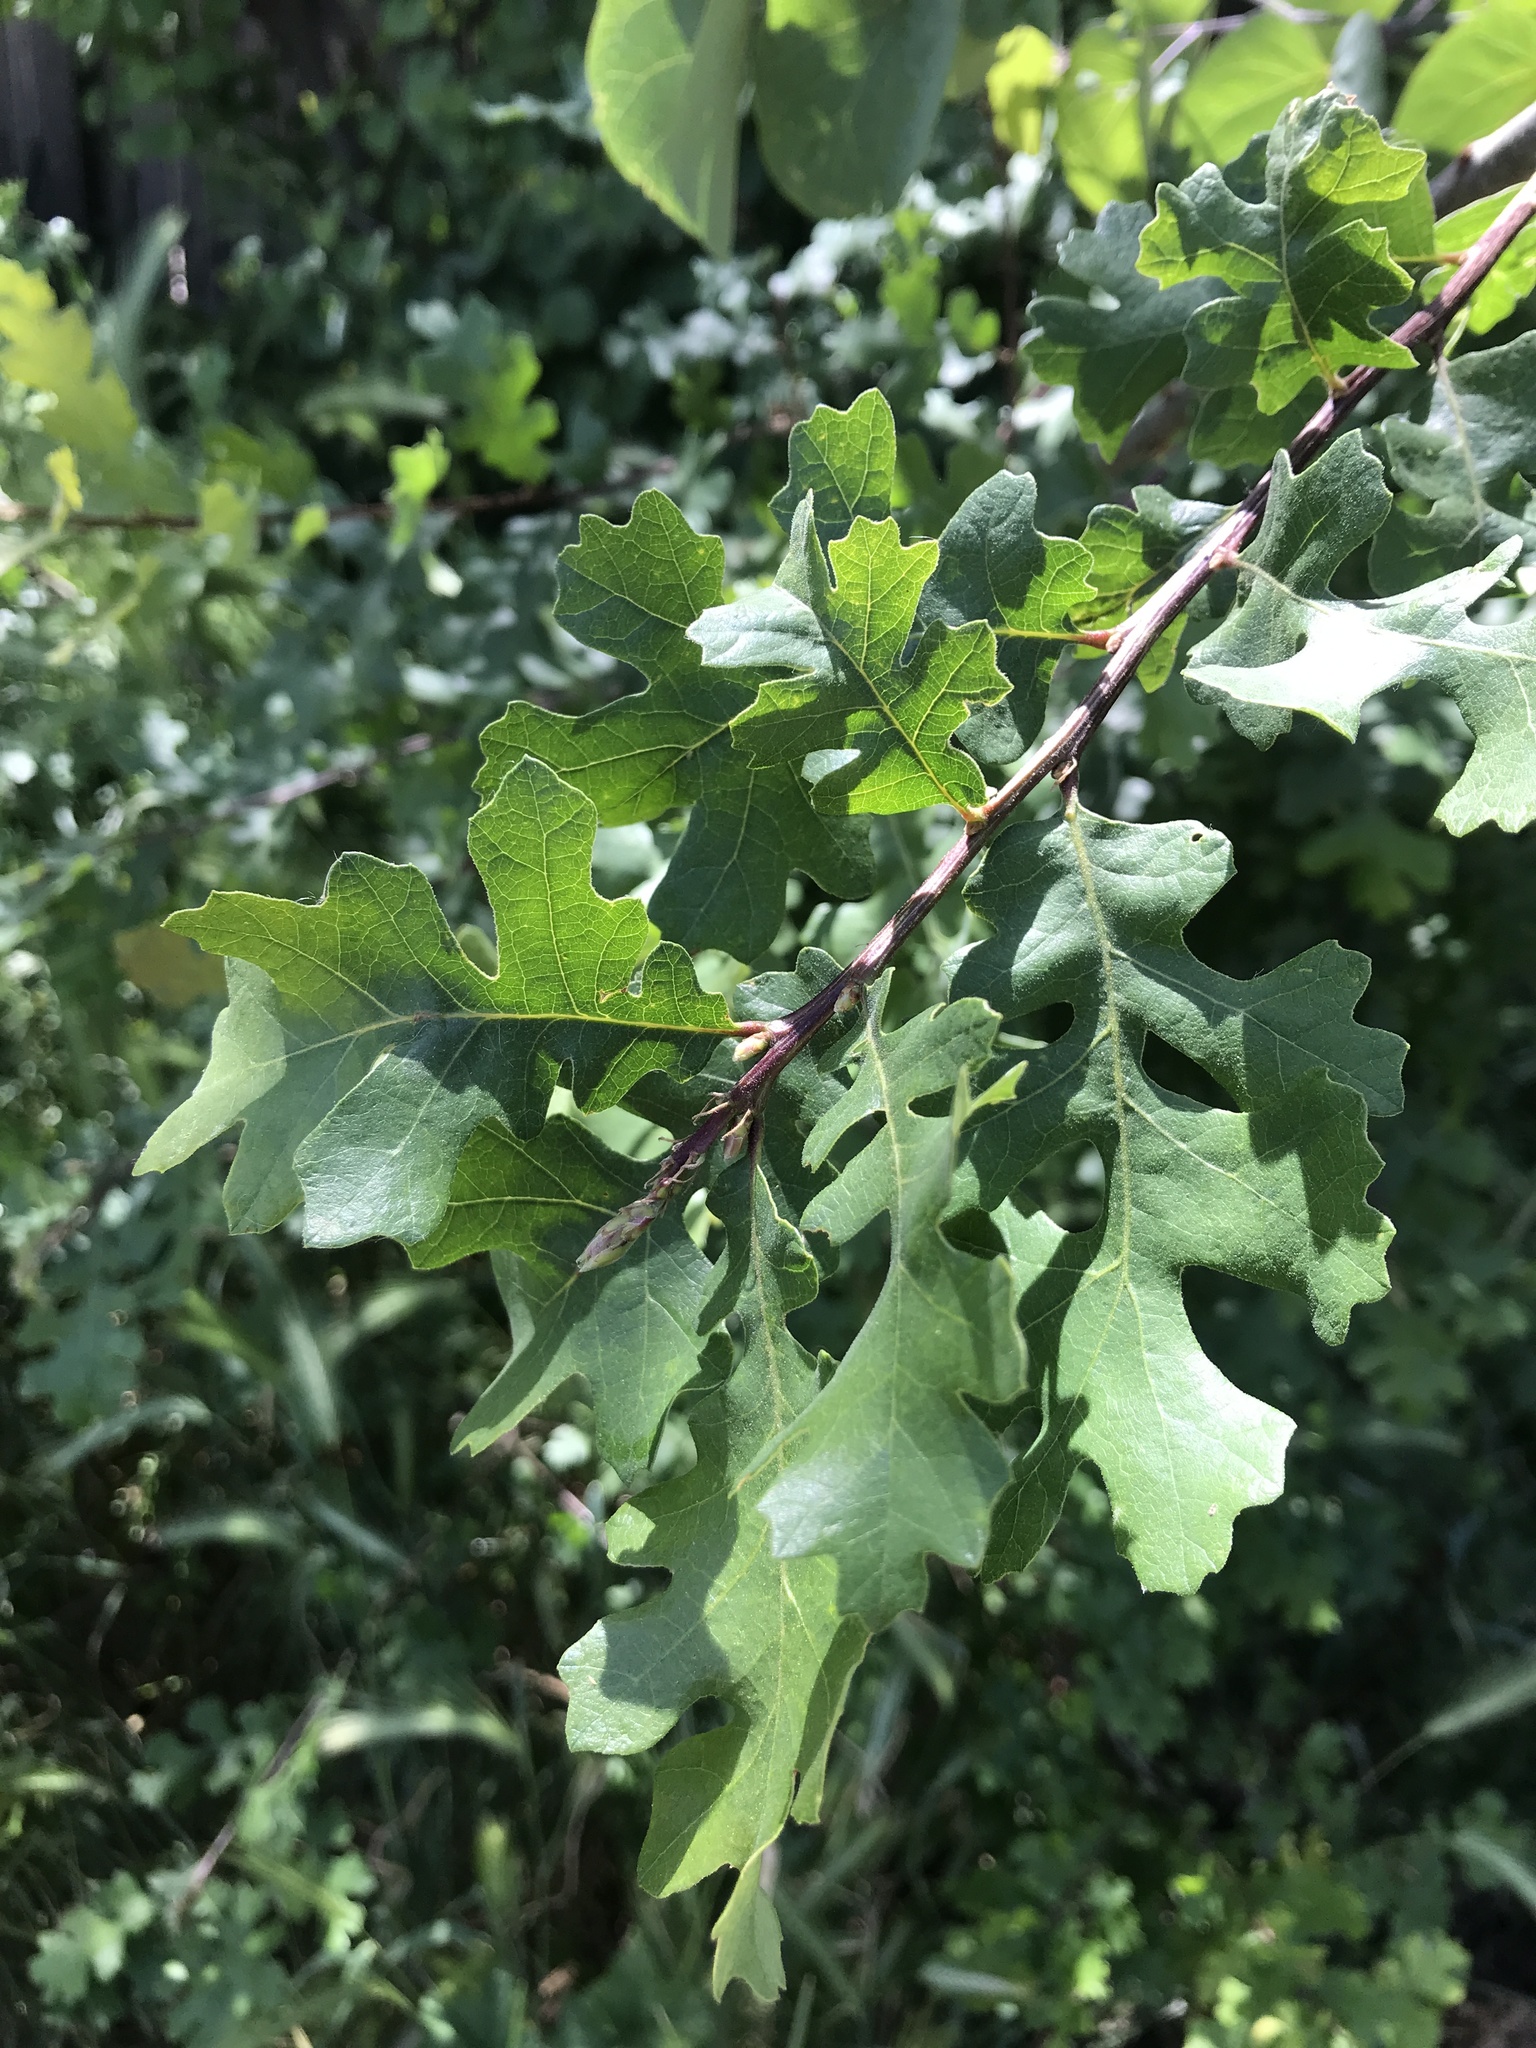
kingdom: Plantae
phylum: Tracheophyta
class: Magnoliopsida
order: Fagales
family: Fagaceae
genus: Quercus
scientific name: Quercus lobata
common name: Valley oak
